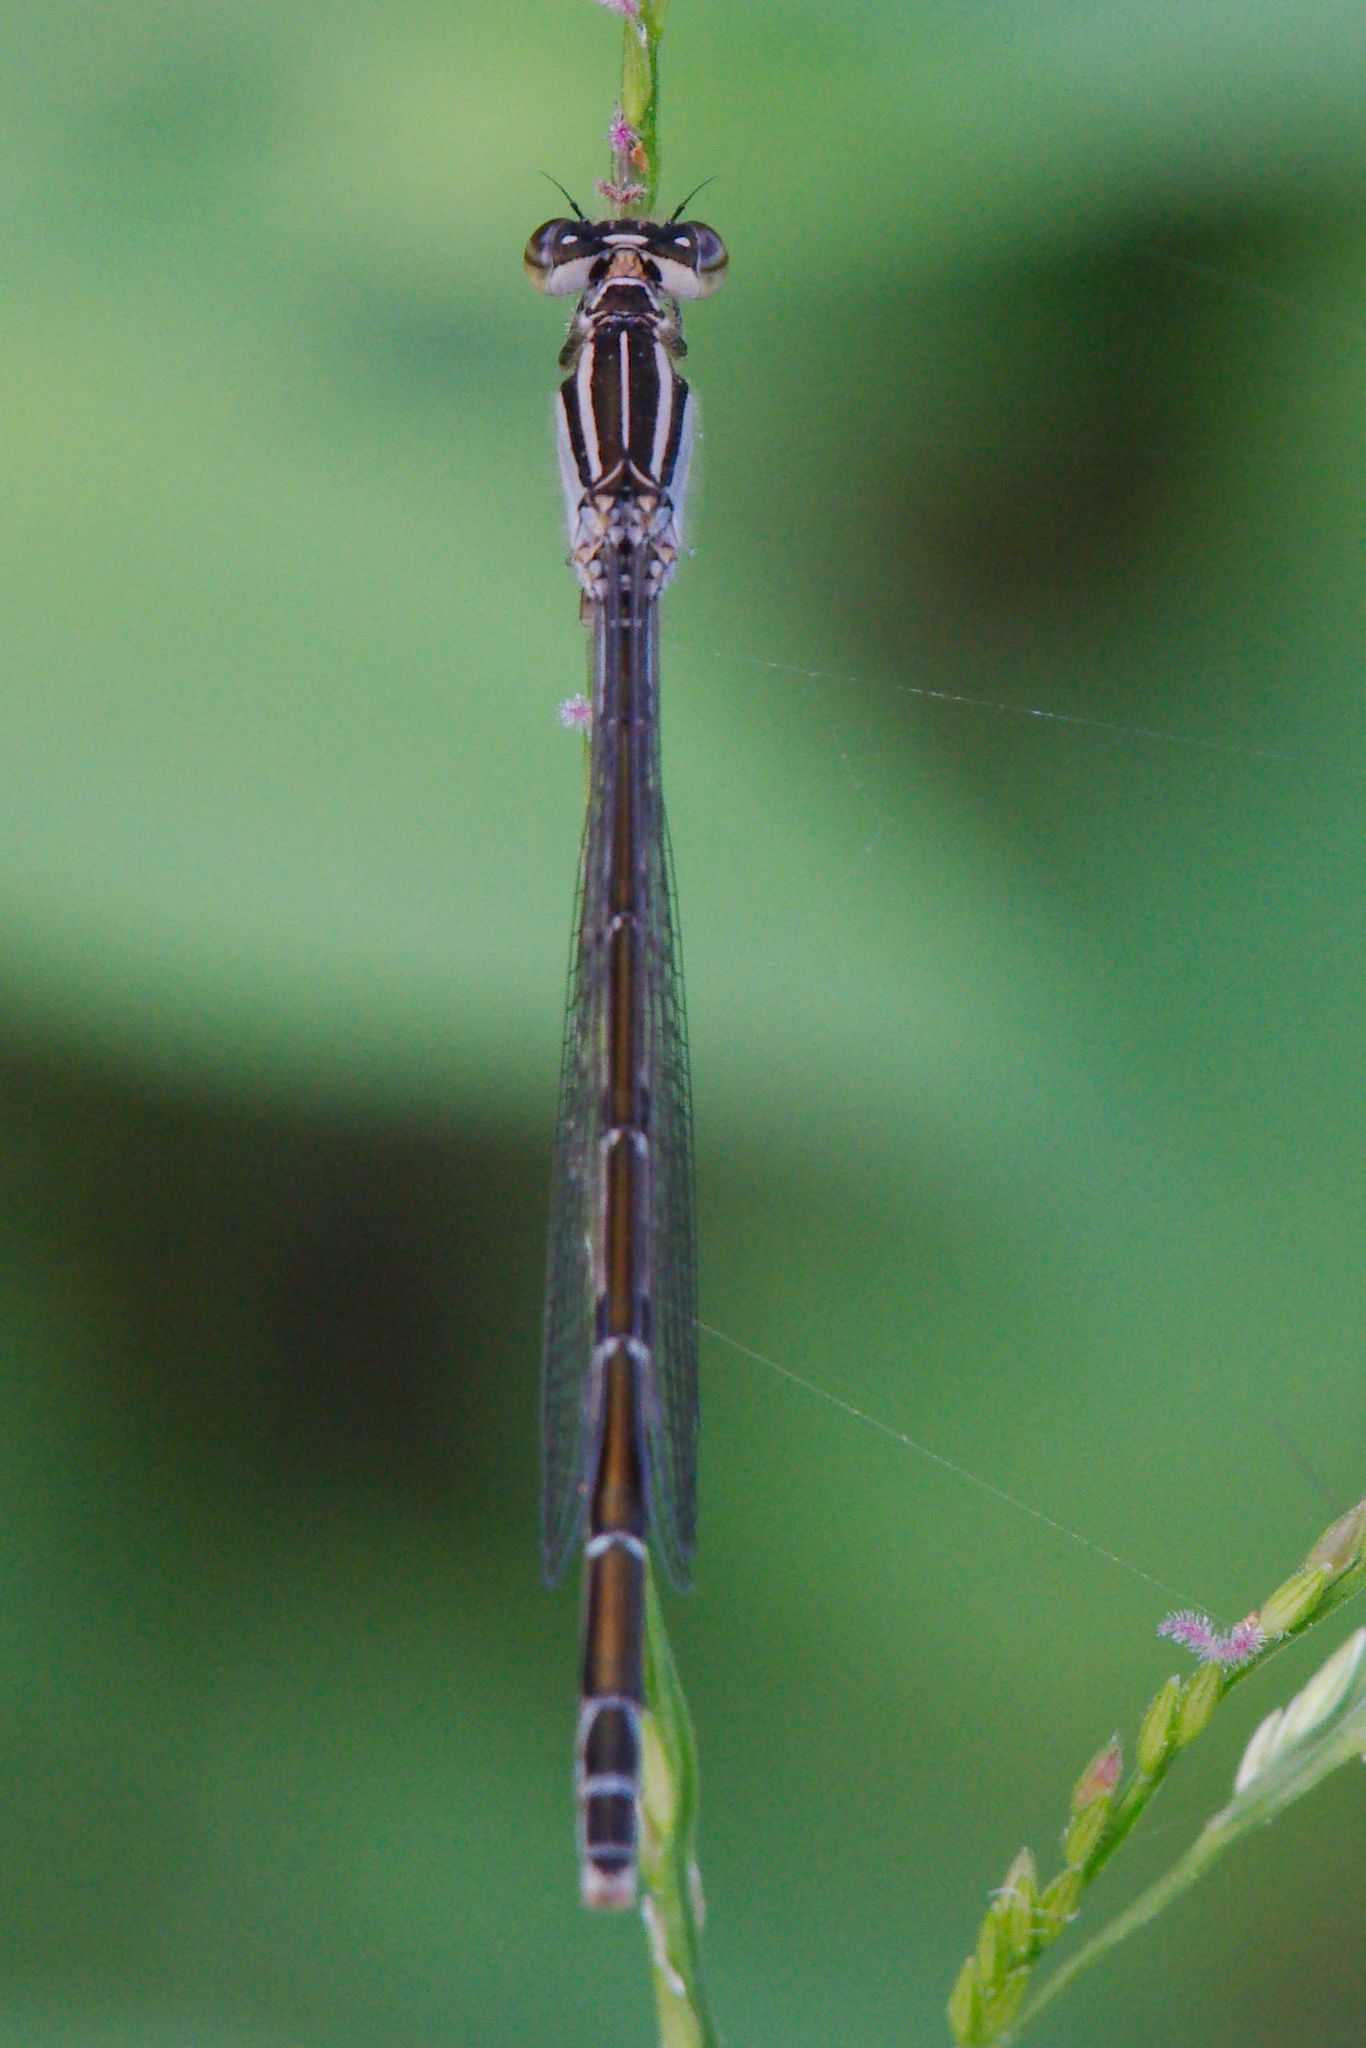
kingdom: Animalia
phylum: Arthropoda
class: Insecta
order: Odonata
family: Coenagrionidae
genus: Enallagma
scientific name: Enallagma durum
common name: Big bluet
